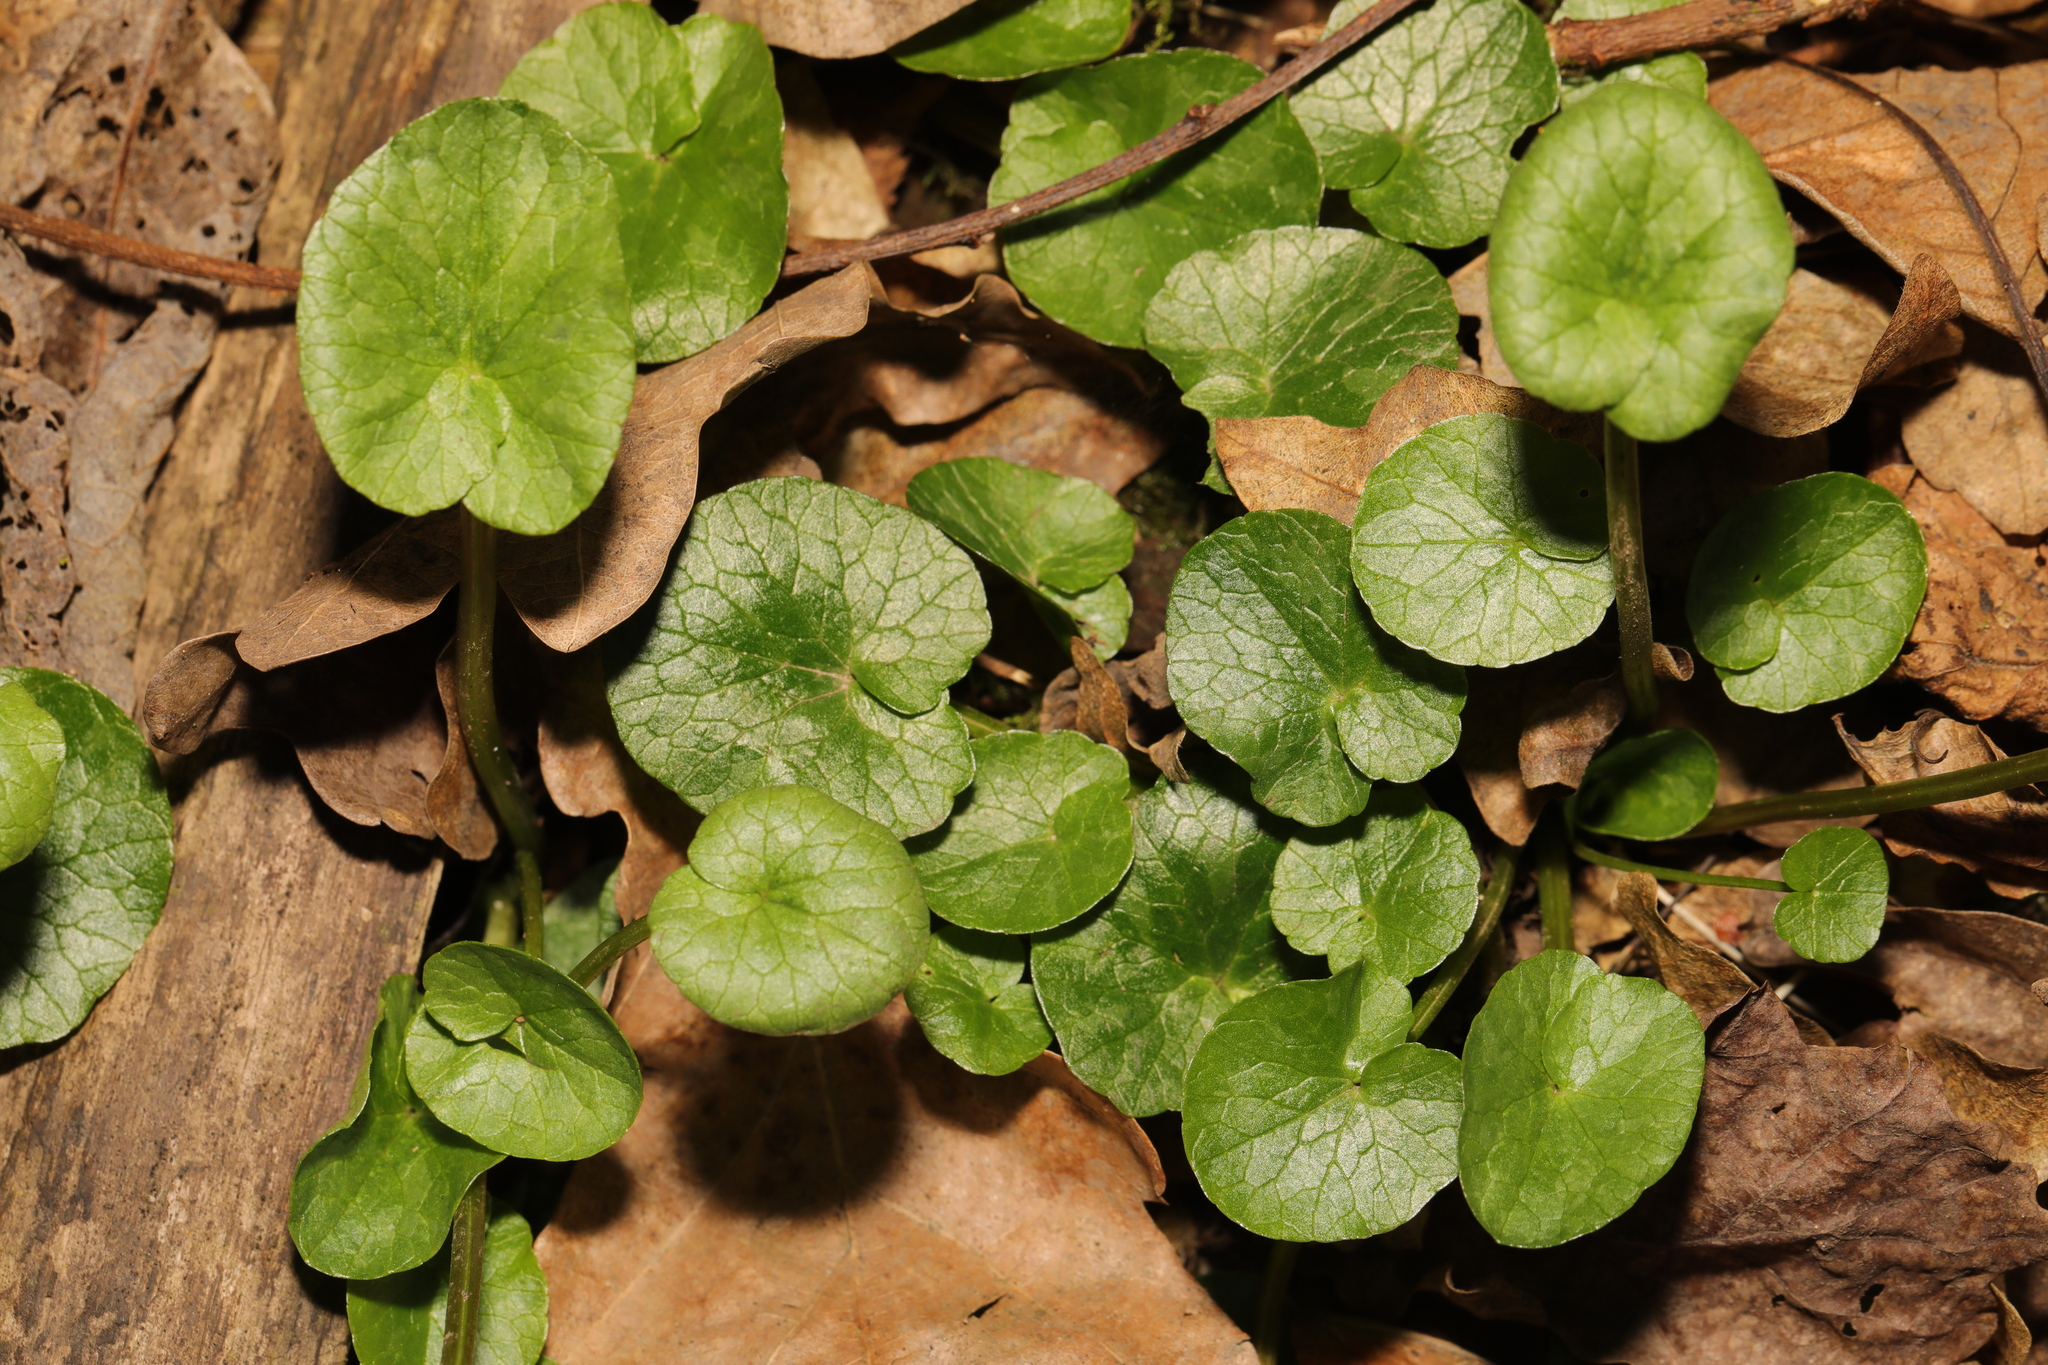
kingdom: Plantae
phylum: Tracheophyta
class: Magnoliopsida
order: Ranunculales
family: Ranunculaceae
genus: Ficaria
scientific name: Ficaria verna
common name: Lesser celandine
